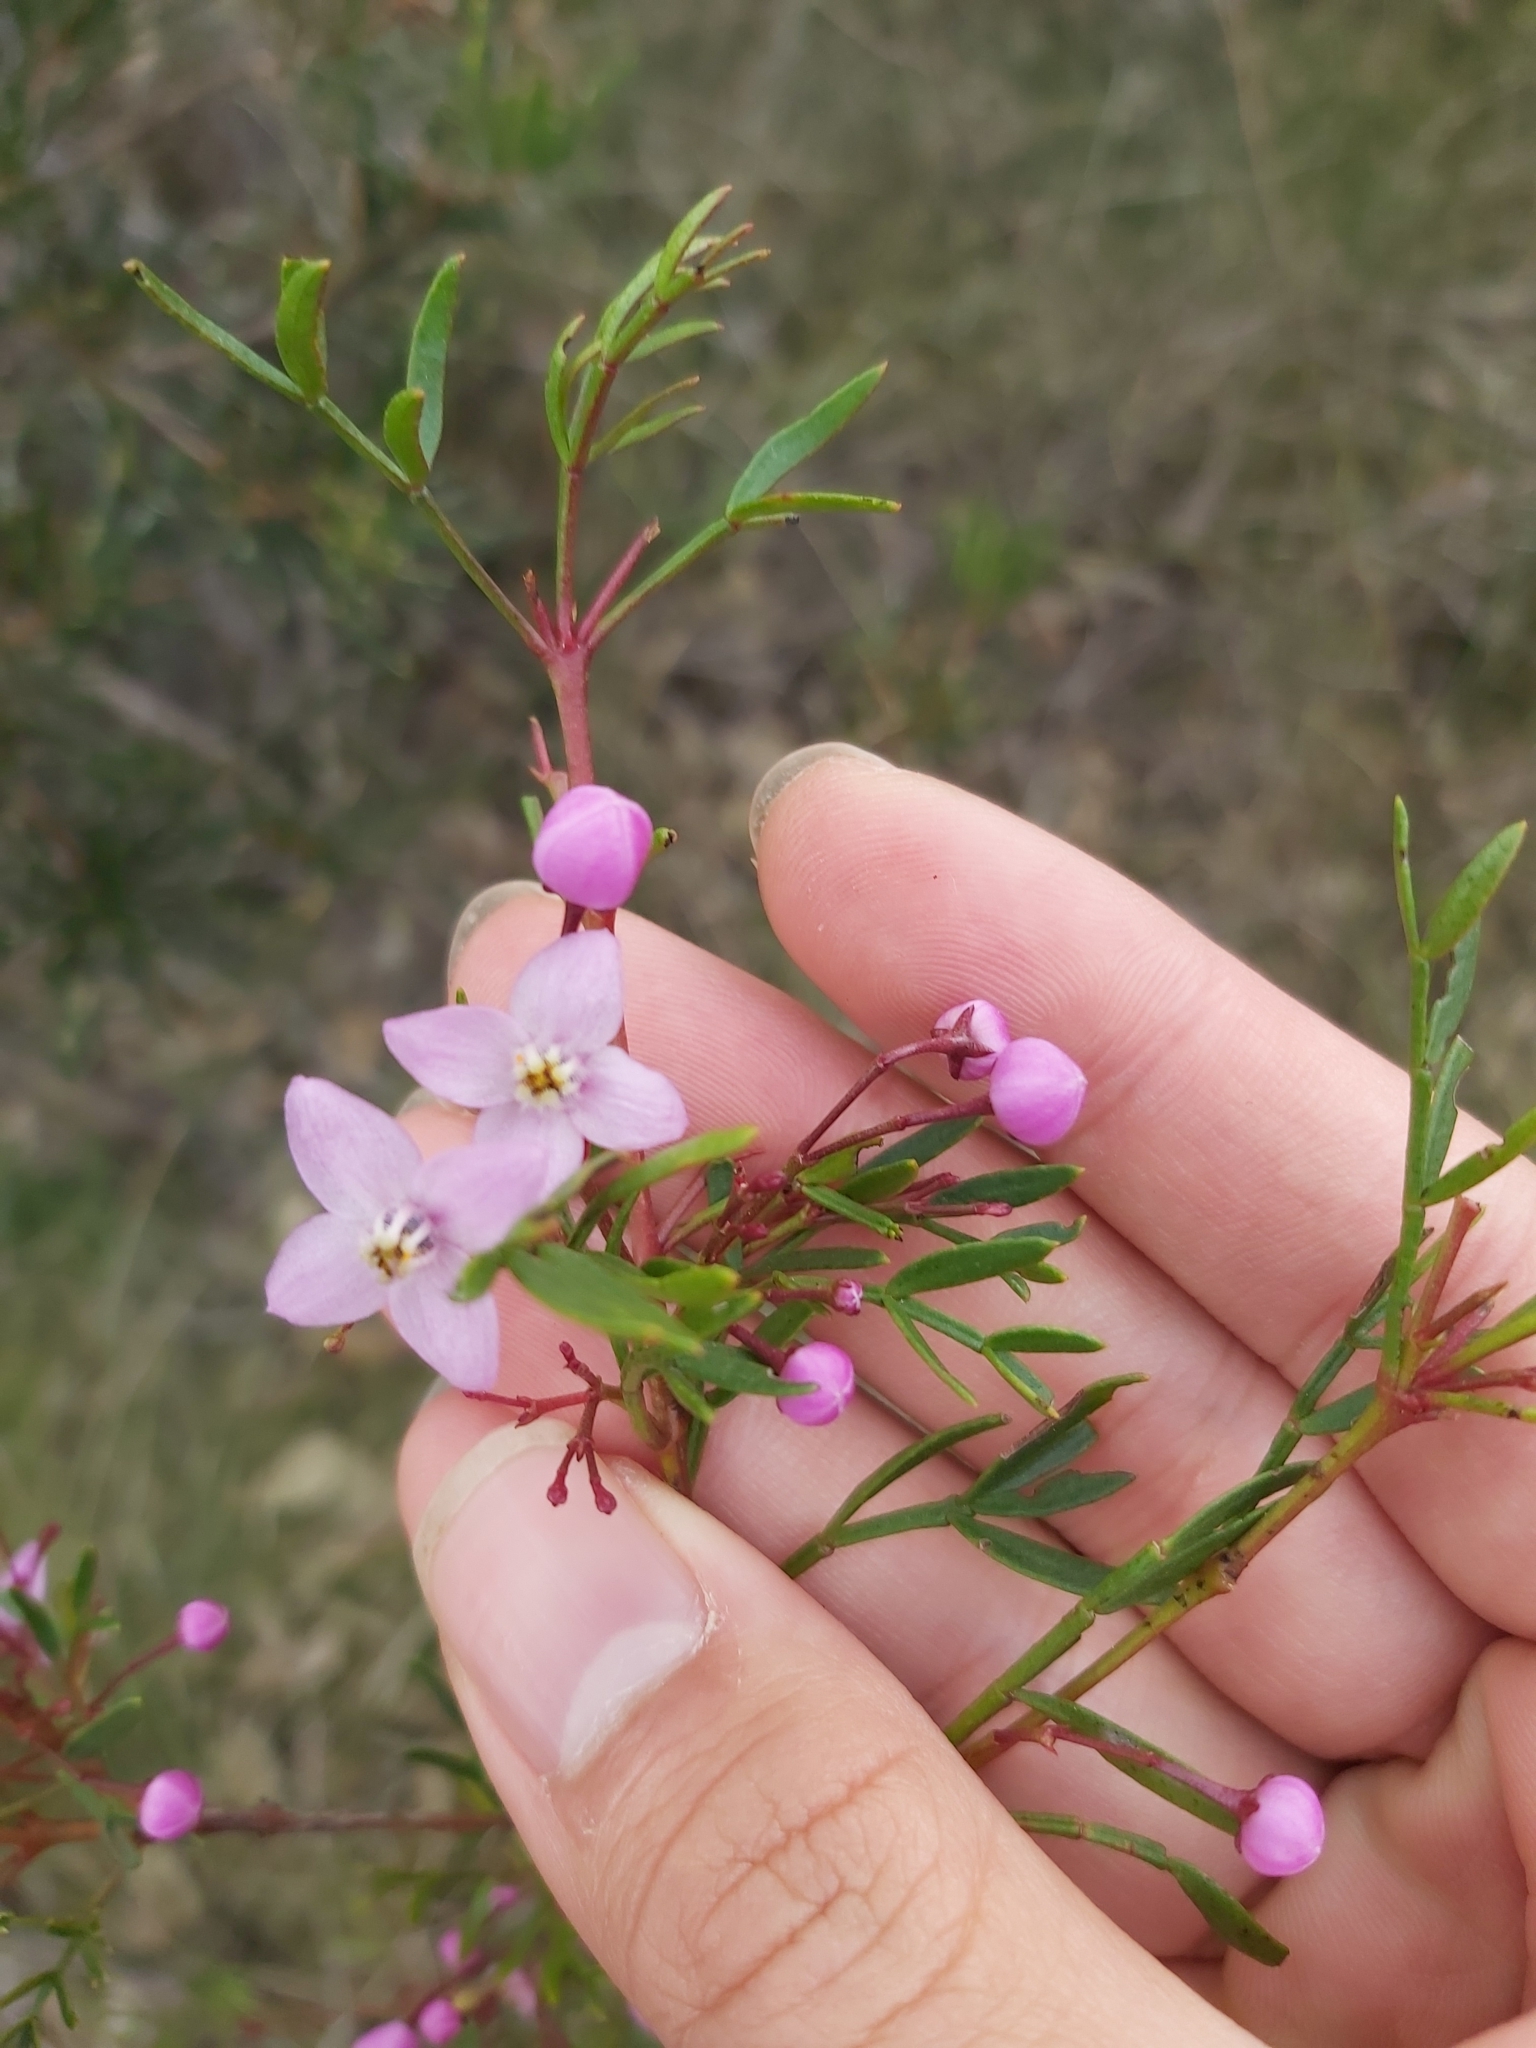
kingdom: Plantae
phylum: Tracheophyta
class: Magnoliopsida
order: Sapindales
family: Rutaceae
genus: Boronia
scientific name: Boronia pinnata
